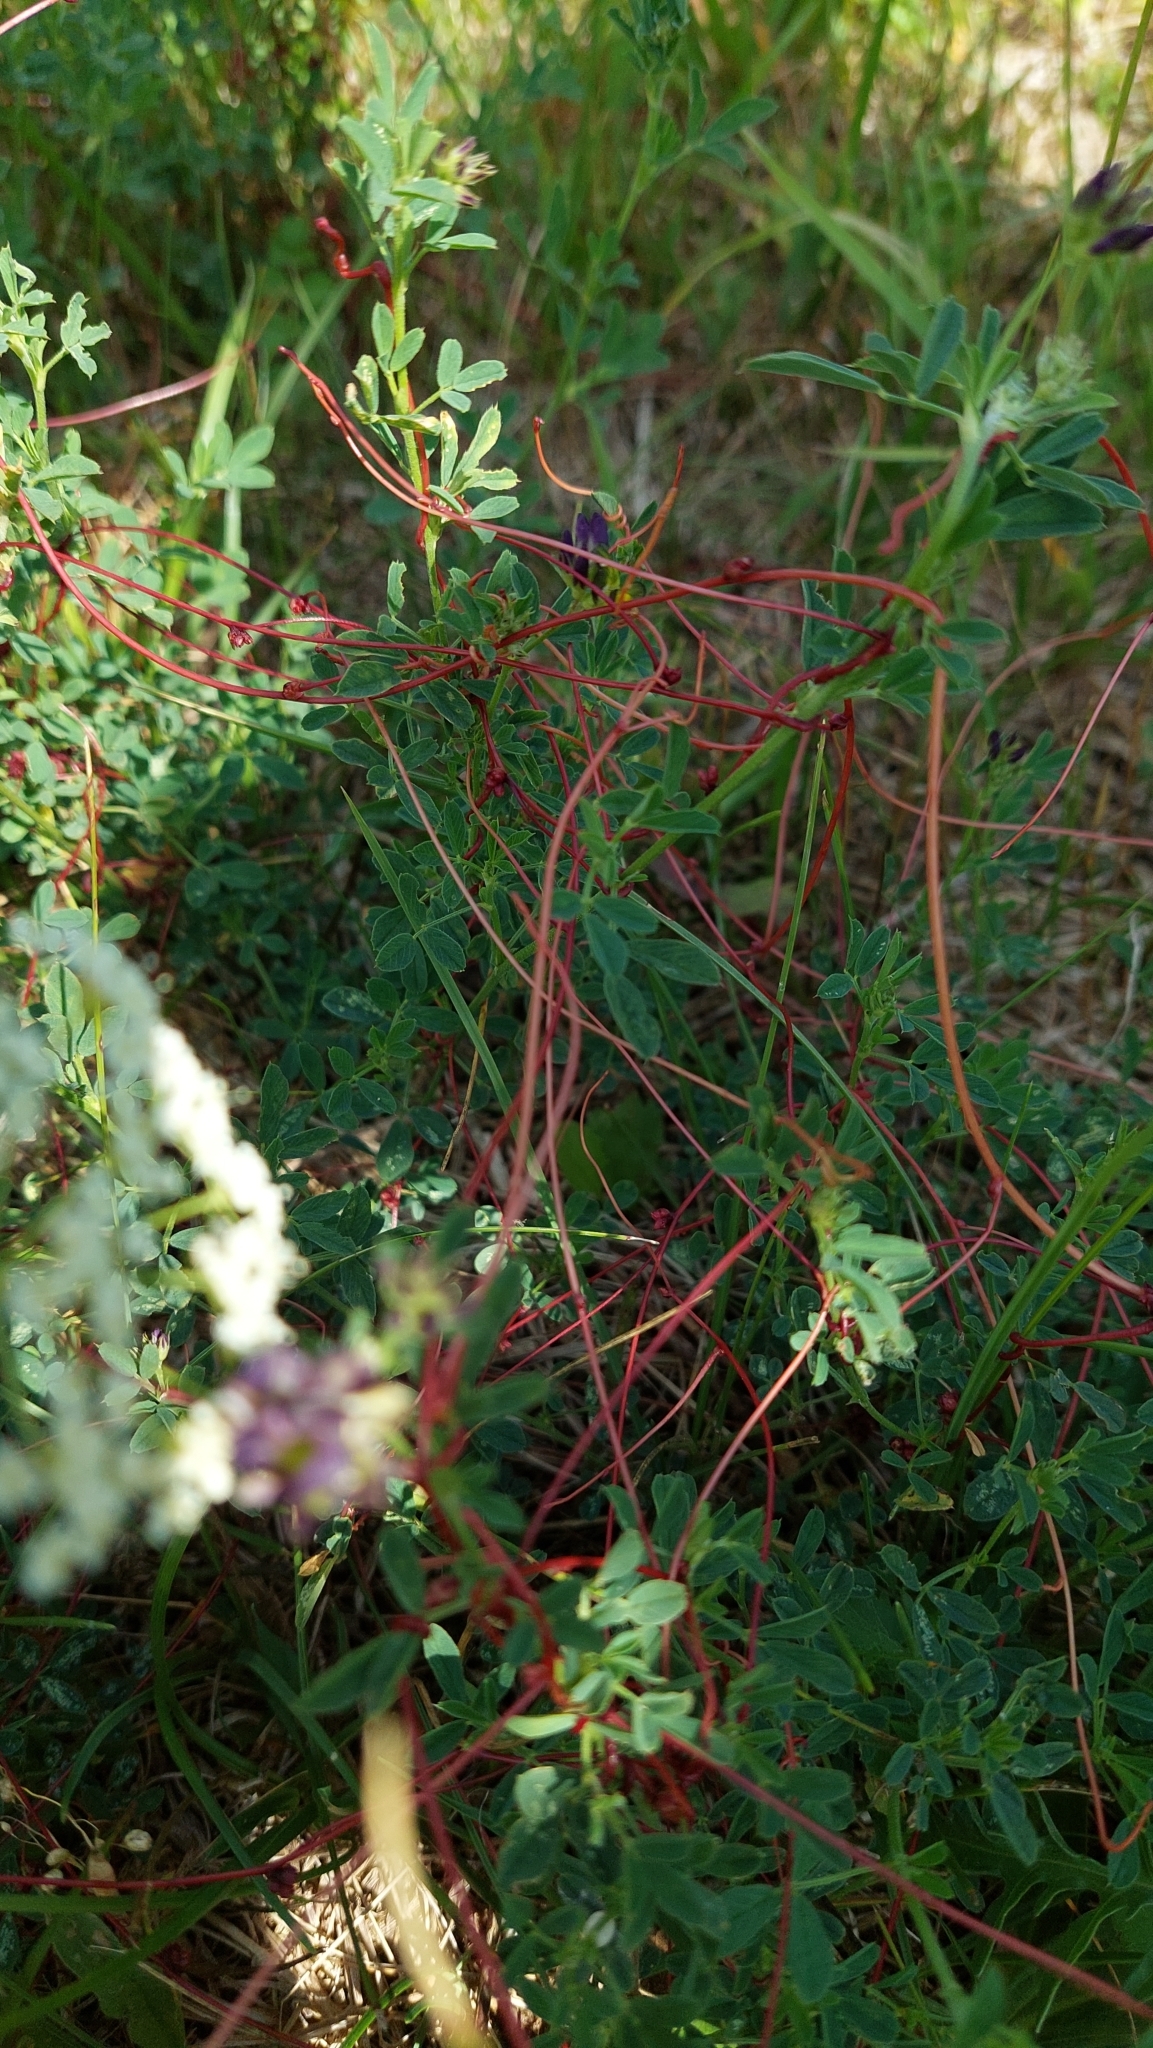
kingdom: Plantae
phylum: Tracheophyta
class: Magnoliopsida
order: Solanales
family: Convolvulaceae
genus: Cuscuta
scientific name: Cuscuta epithymum
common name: Clover dodder
